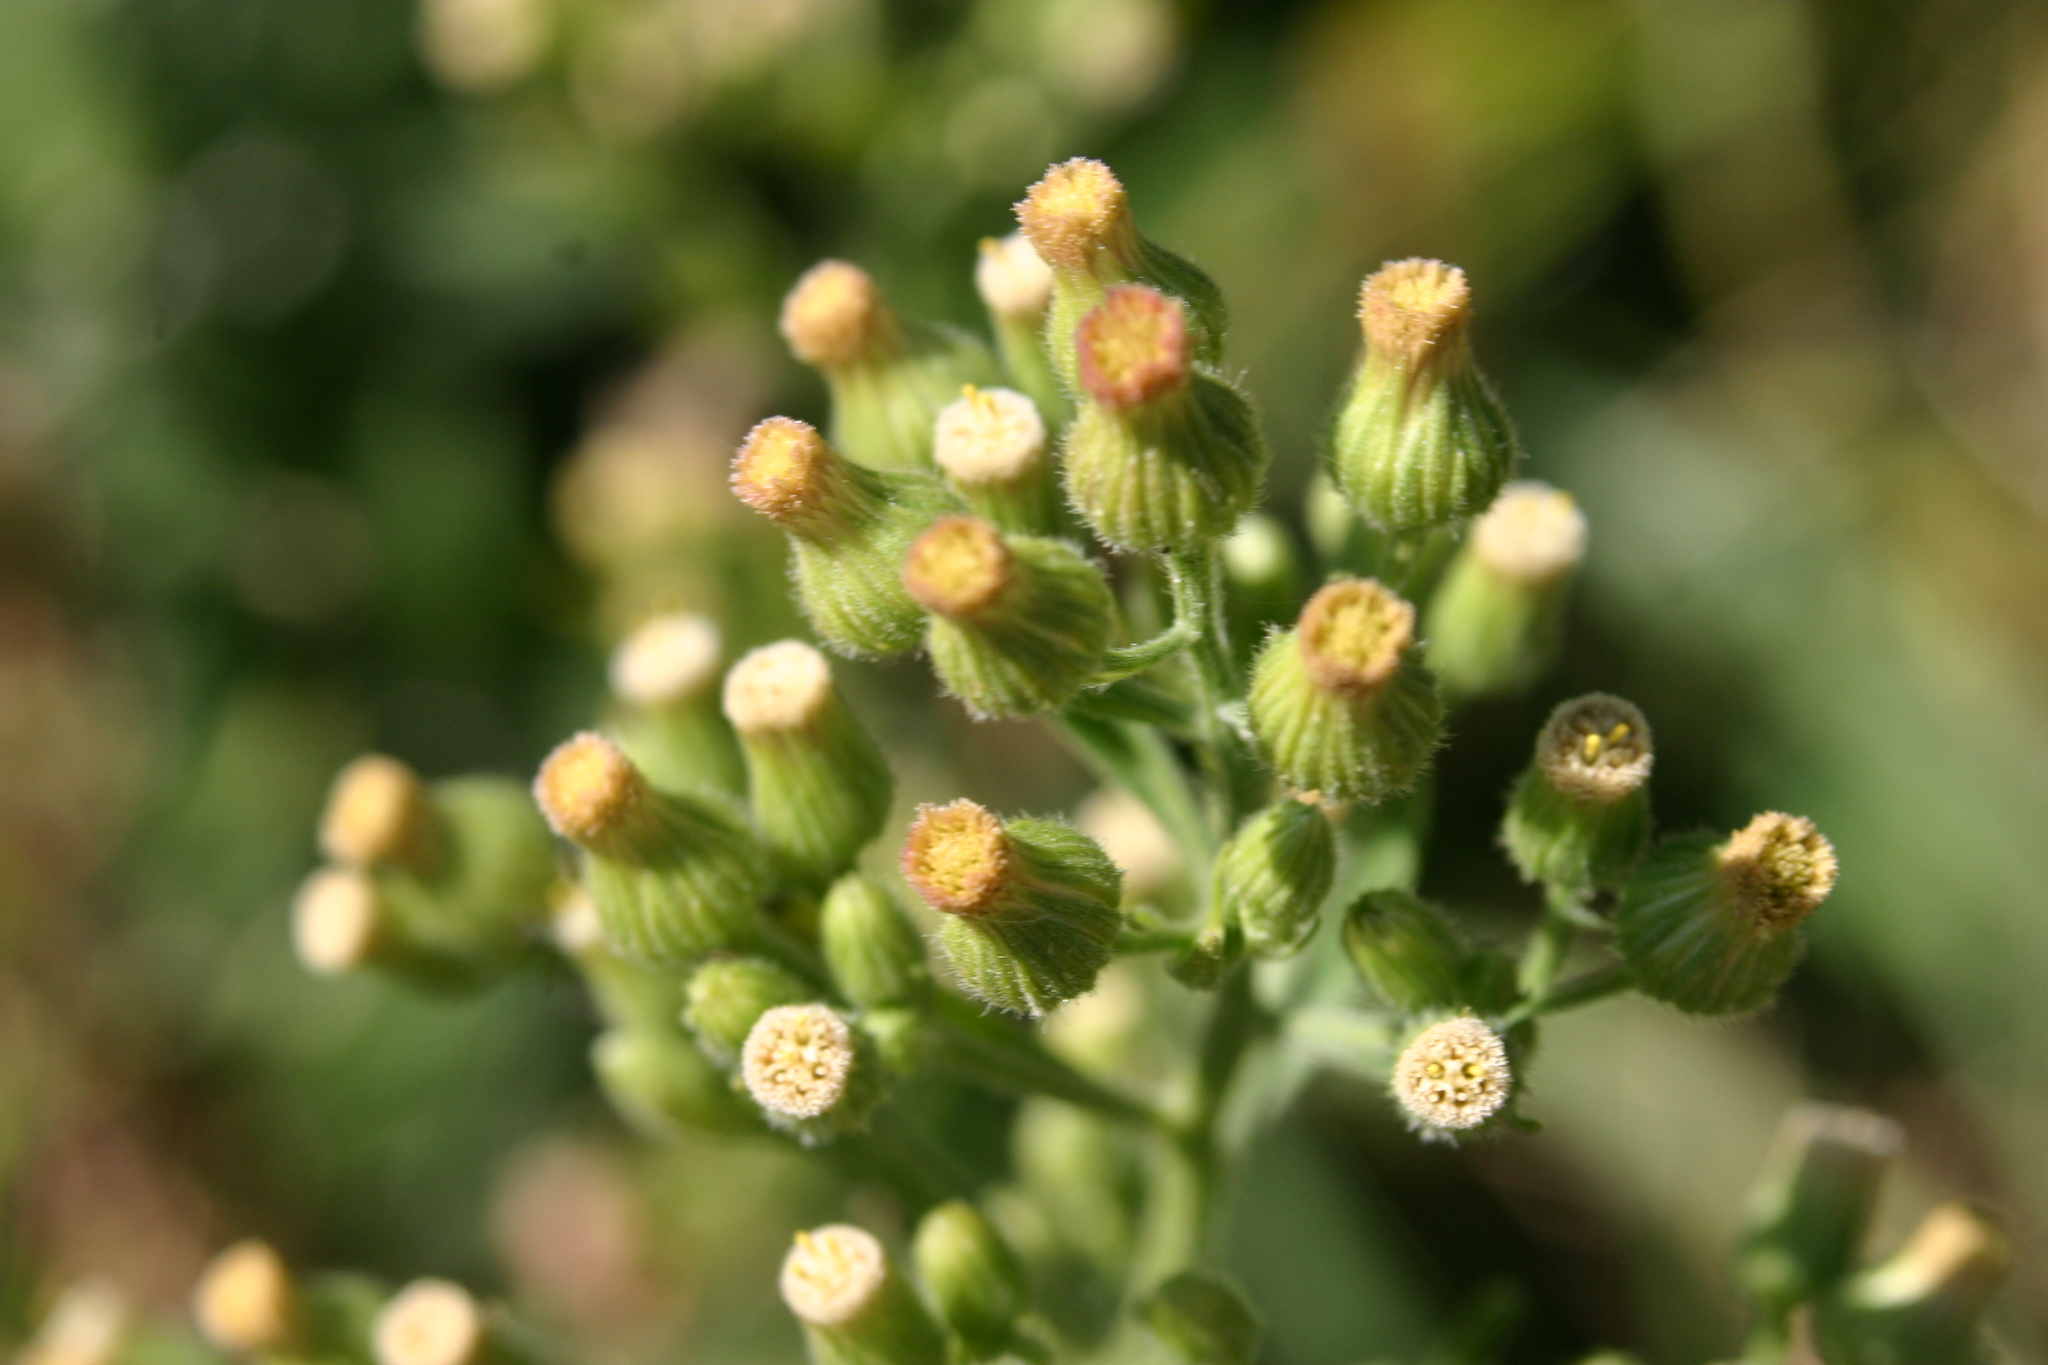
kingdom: Plantae
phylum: Tracheophyta
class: Magnoliopsida
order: Asterales
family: Asteraceae
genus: Erigeron
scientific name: Erigeron sumatrensis
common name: Daisy
